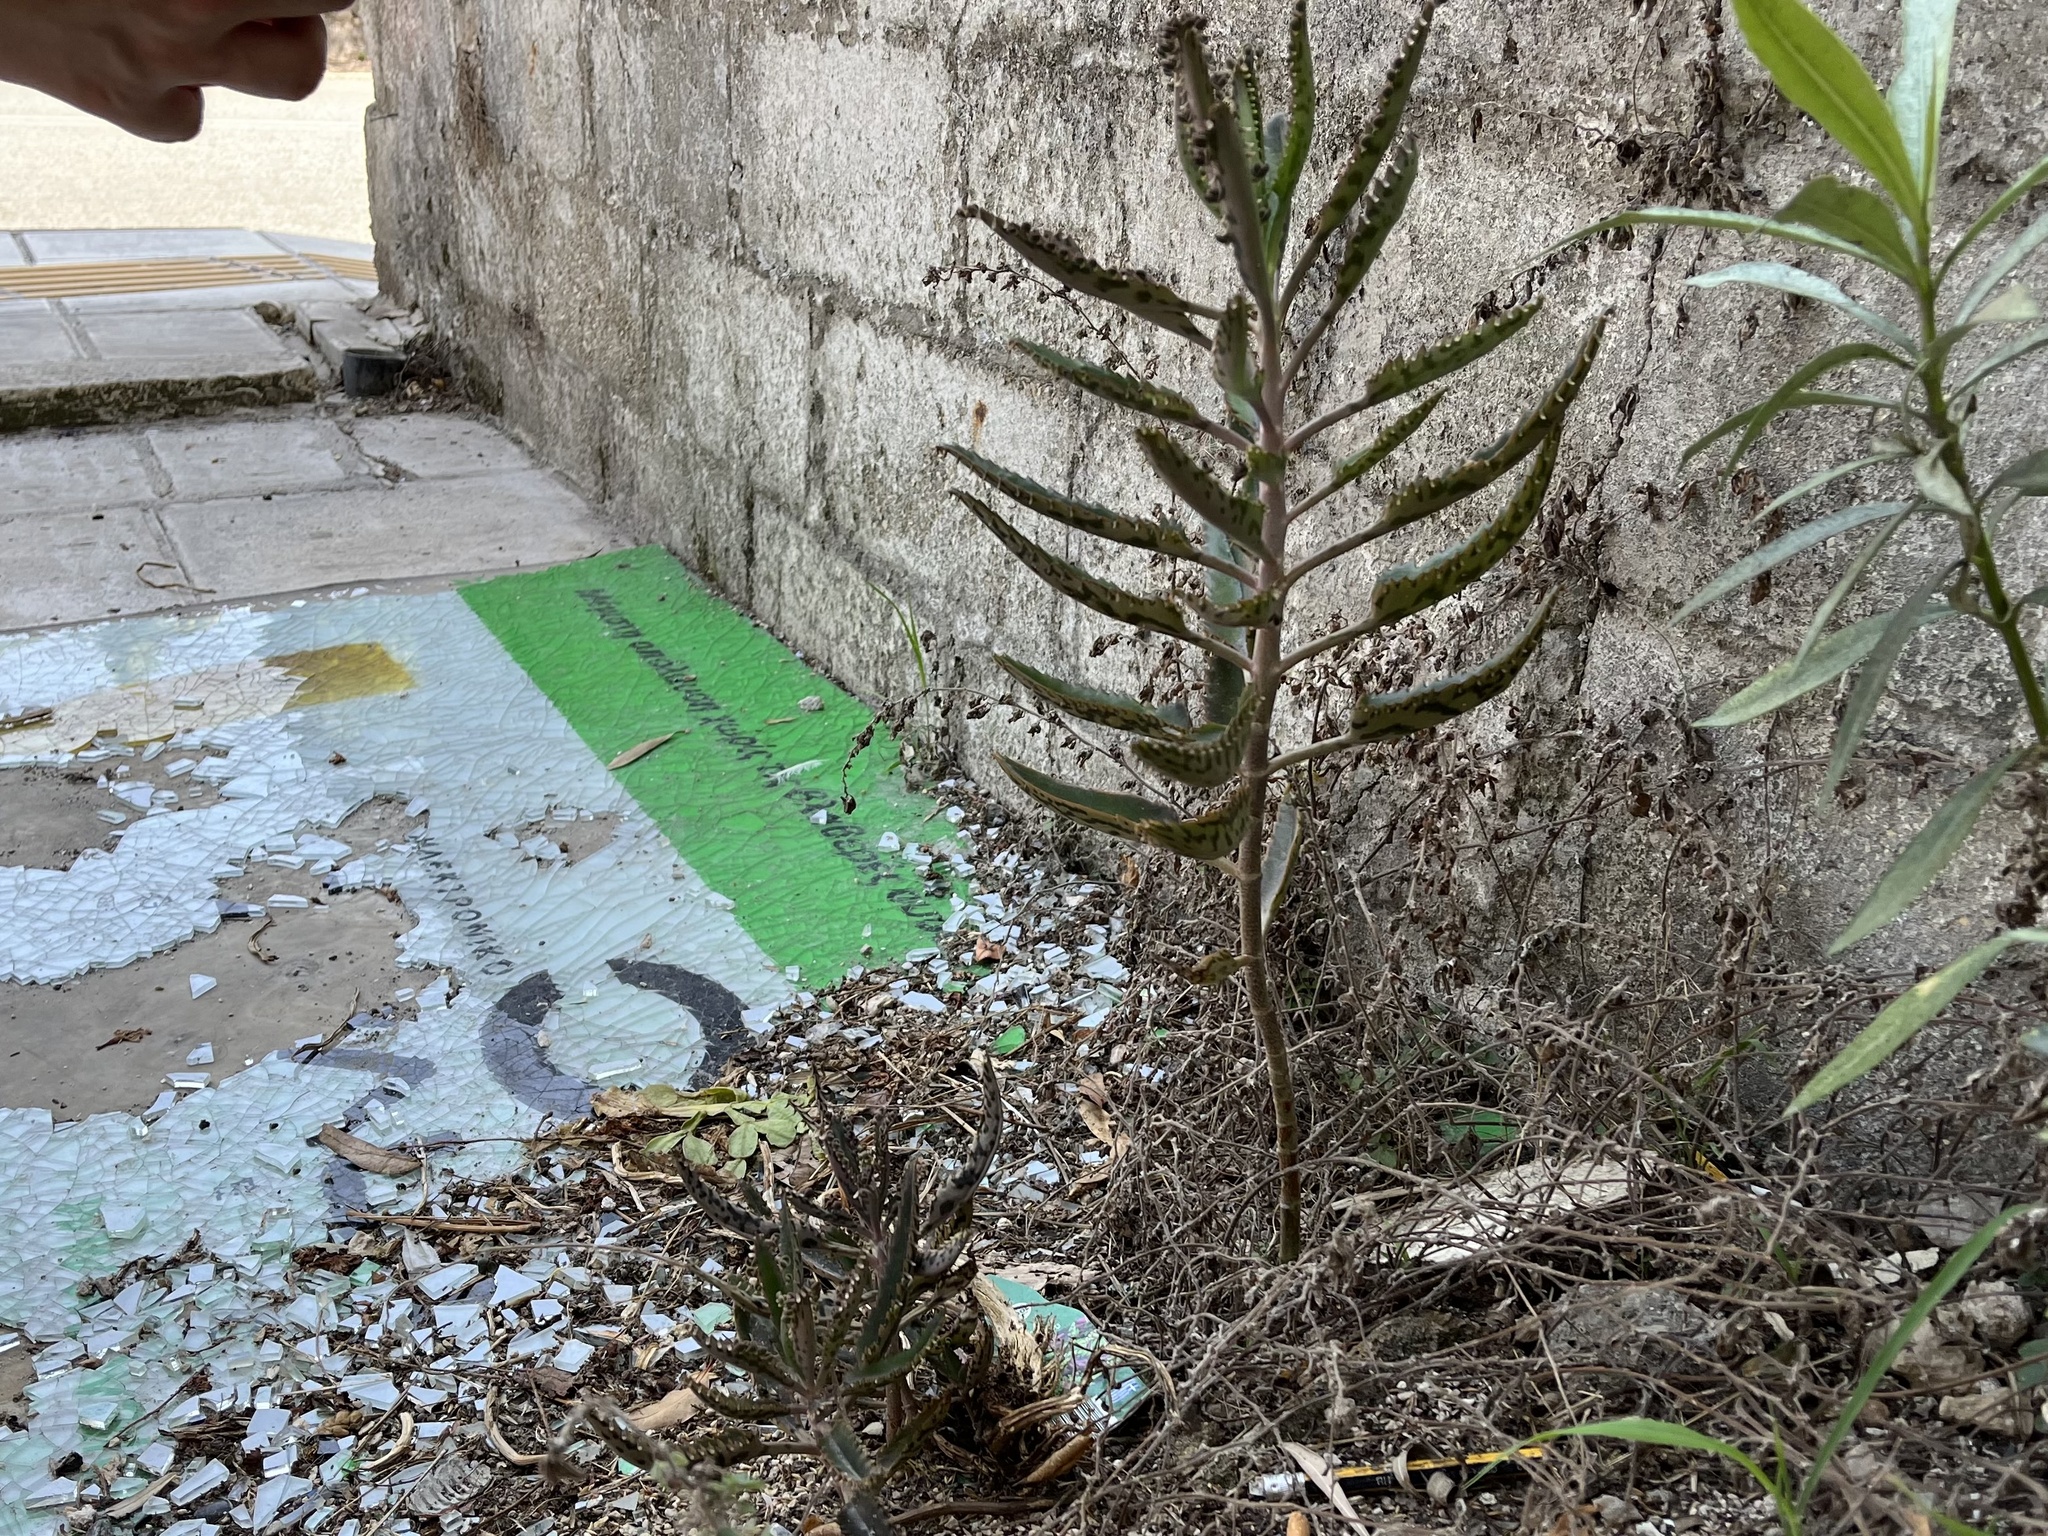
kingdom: Plantae
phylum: Tracheophyta
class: Magnoliopsida
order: Saxifragales
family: Crassulaceae
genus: Kalanchoe
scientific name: Kalanchoe houghtonii
